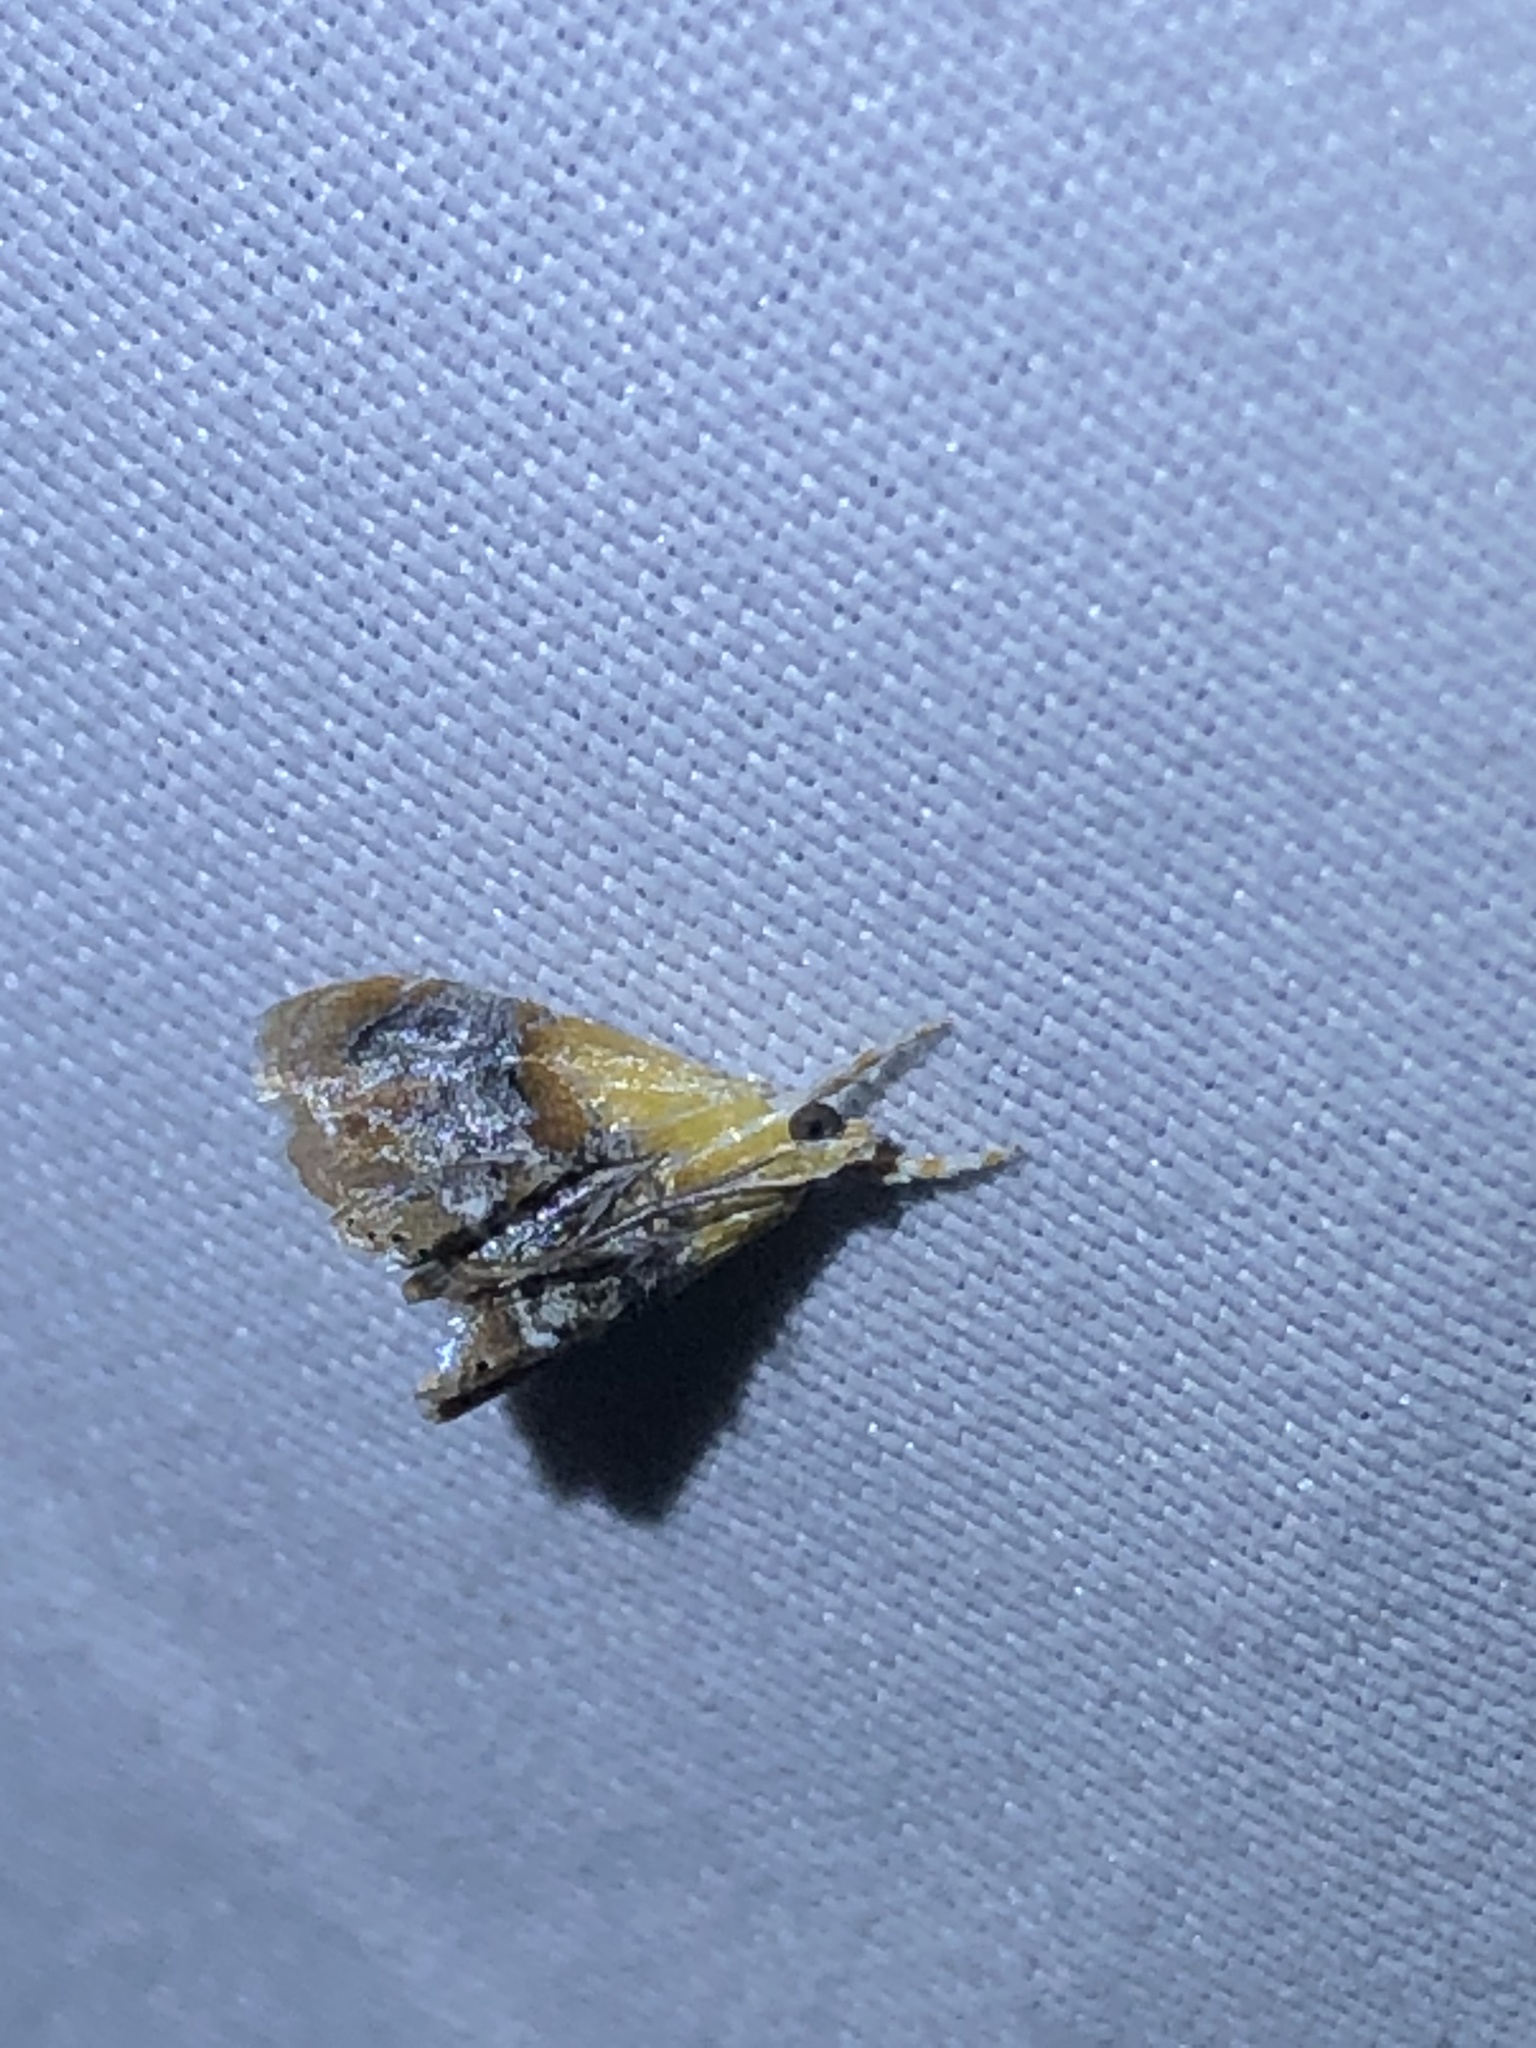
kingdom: Animalia
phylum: Arthropoda
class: Insecta
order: Lepidoptera
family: Crambidae
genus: Chalcoela
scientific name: Chalcoela iphitalis
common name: Sooty-winged chalcoela moth
